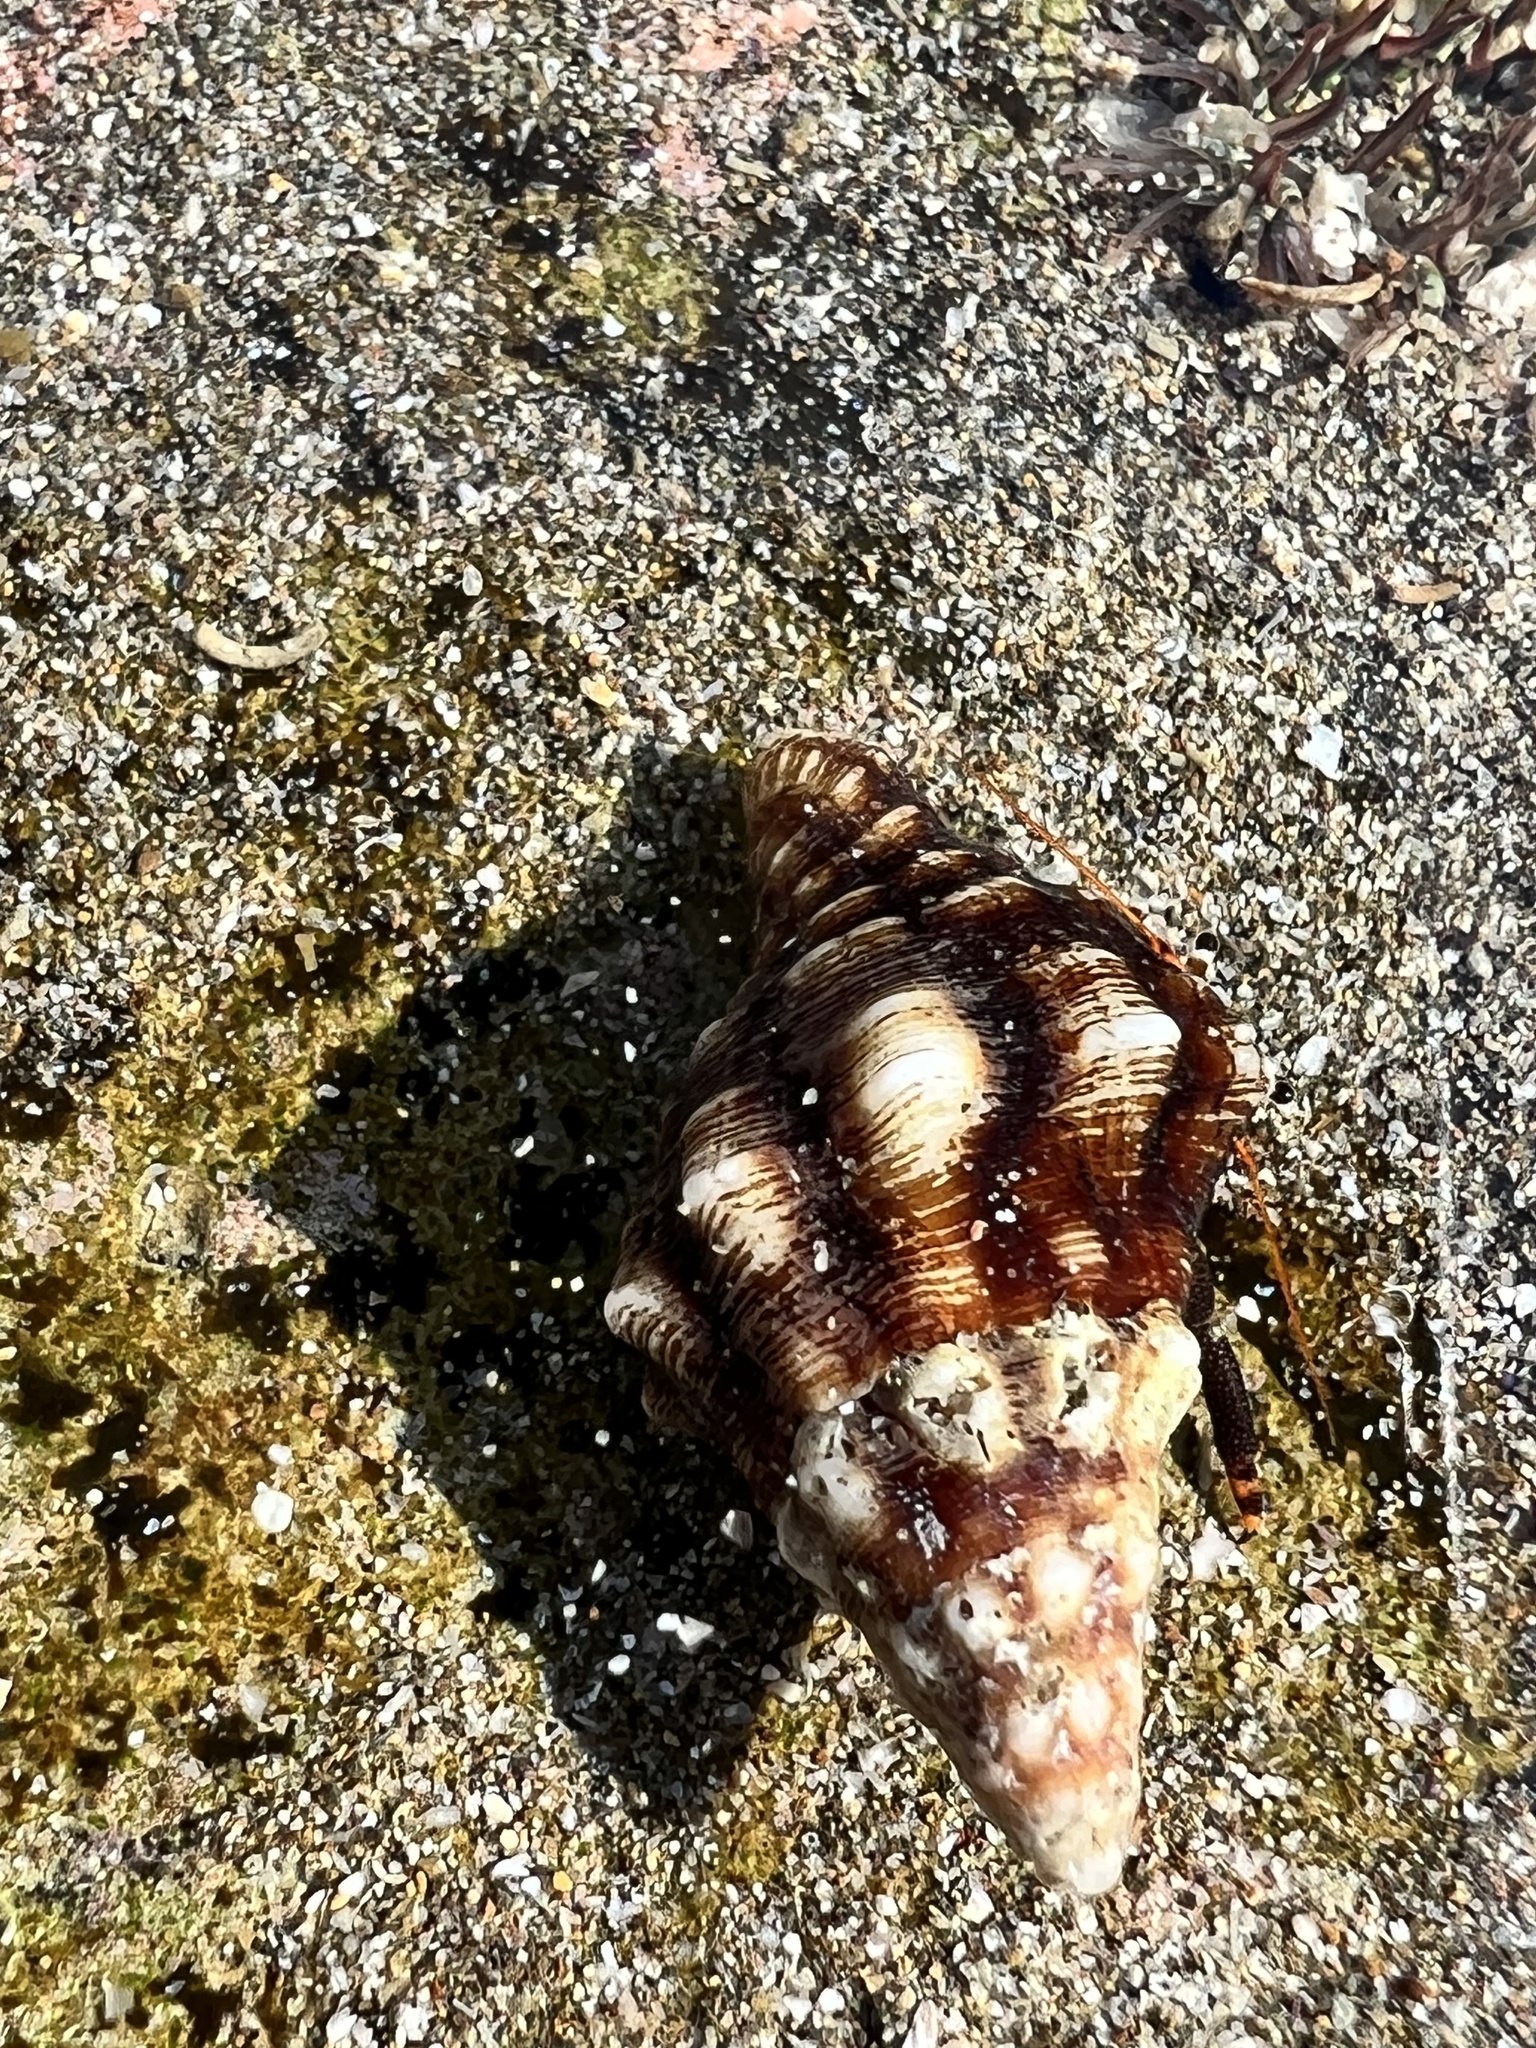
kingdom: Animalia
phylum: Mollusca
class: Gastropoda
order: Neogastropoda
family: Fasciolariidae
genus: Leucozonia
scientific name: Leucozonia cerata
